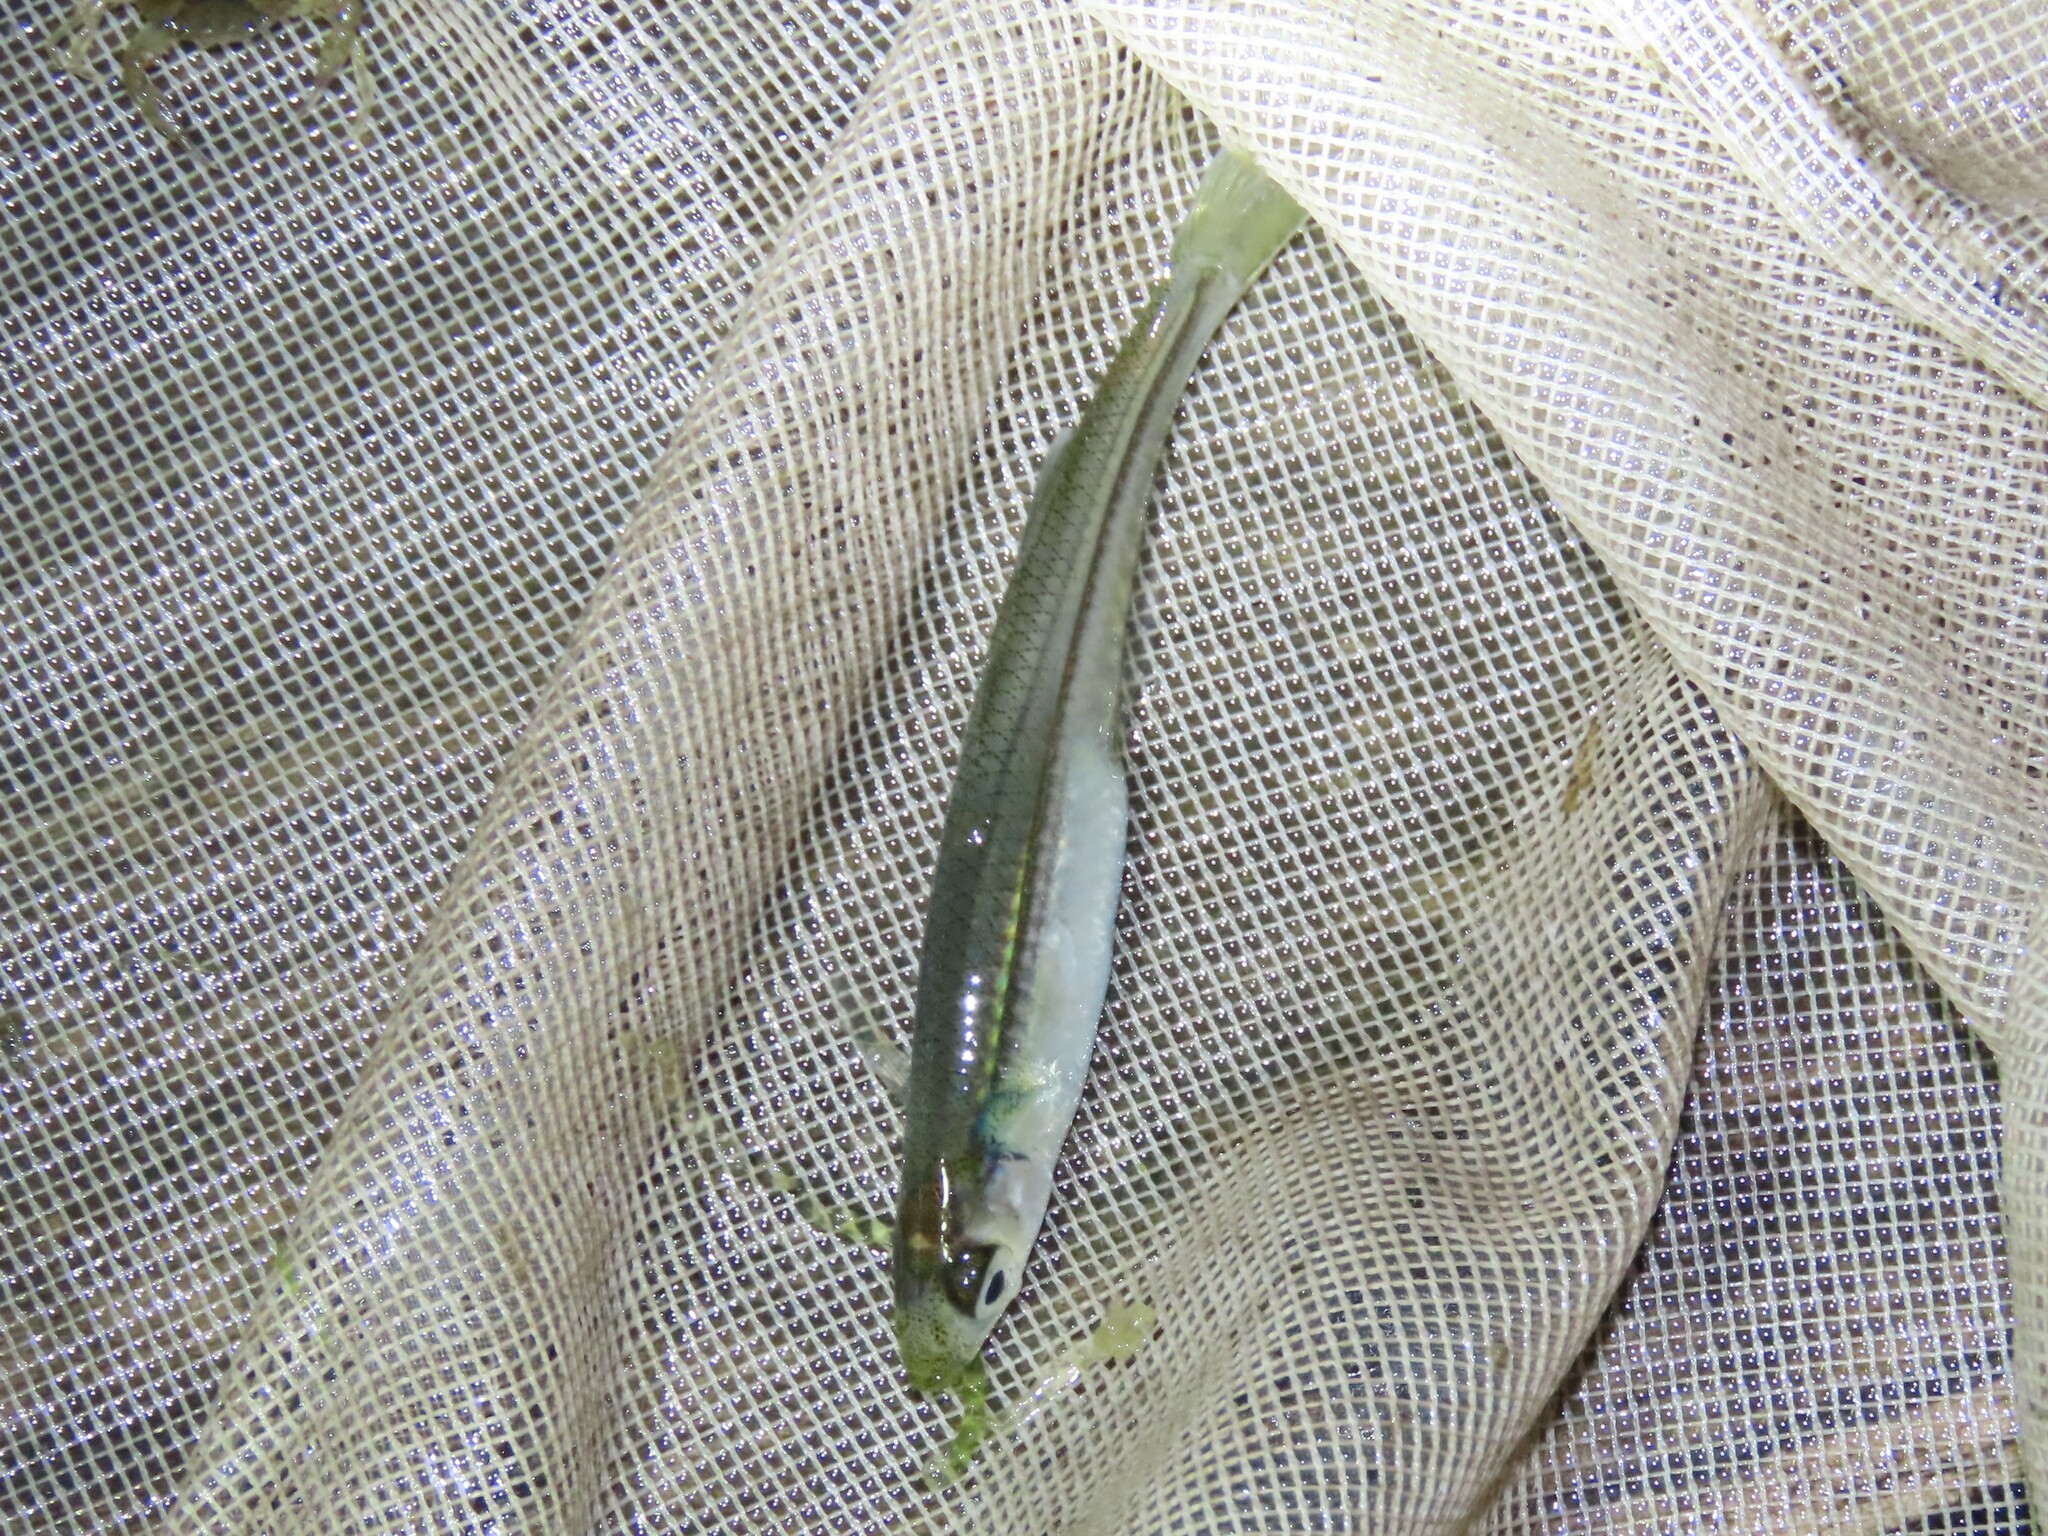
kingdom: Animalia
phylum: Chordata
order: Atheriniformes
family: Atherinopsidae
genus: Menidia
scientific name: Menidia menidia
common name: Atlantic silverside
